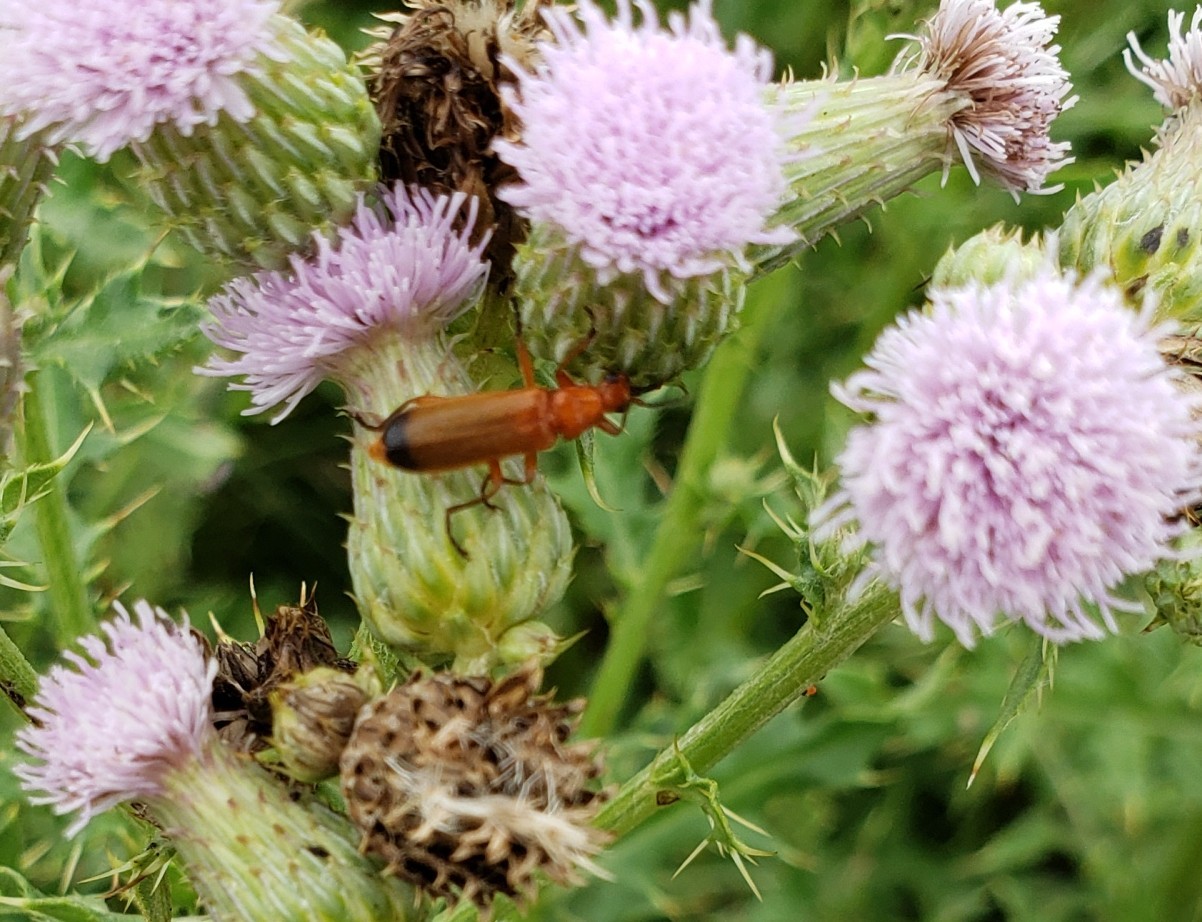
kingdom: Animalia
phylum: Arthropoda
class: Insecta
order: Coleoptera
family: Cantharidae
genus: Rhagonycha
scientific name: Rhagonycha fulva
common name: Common red soldier beetle
